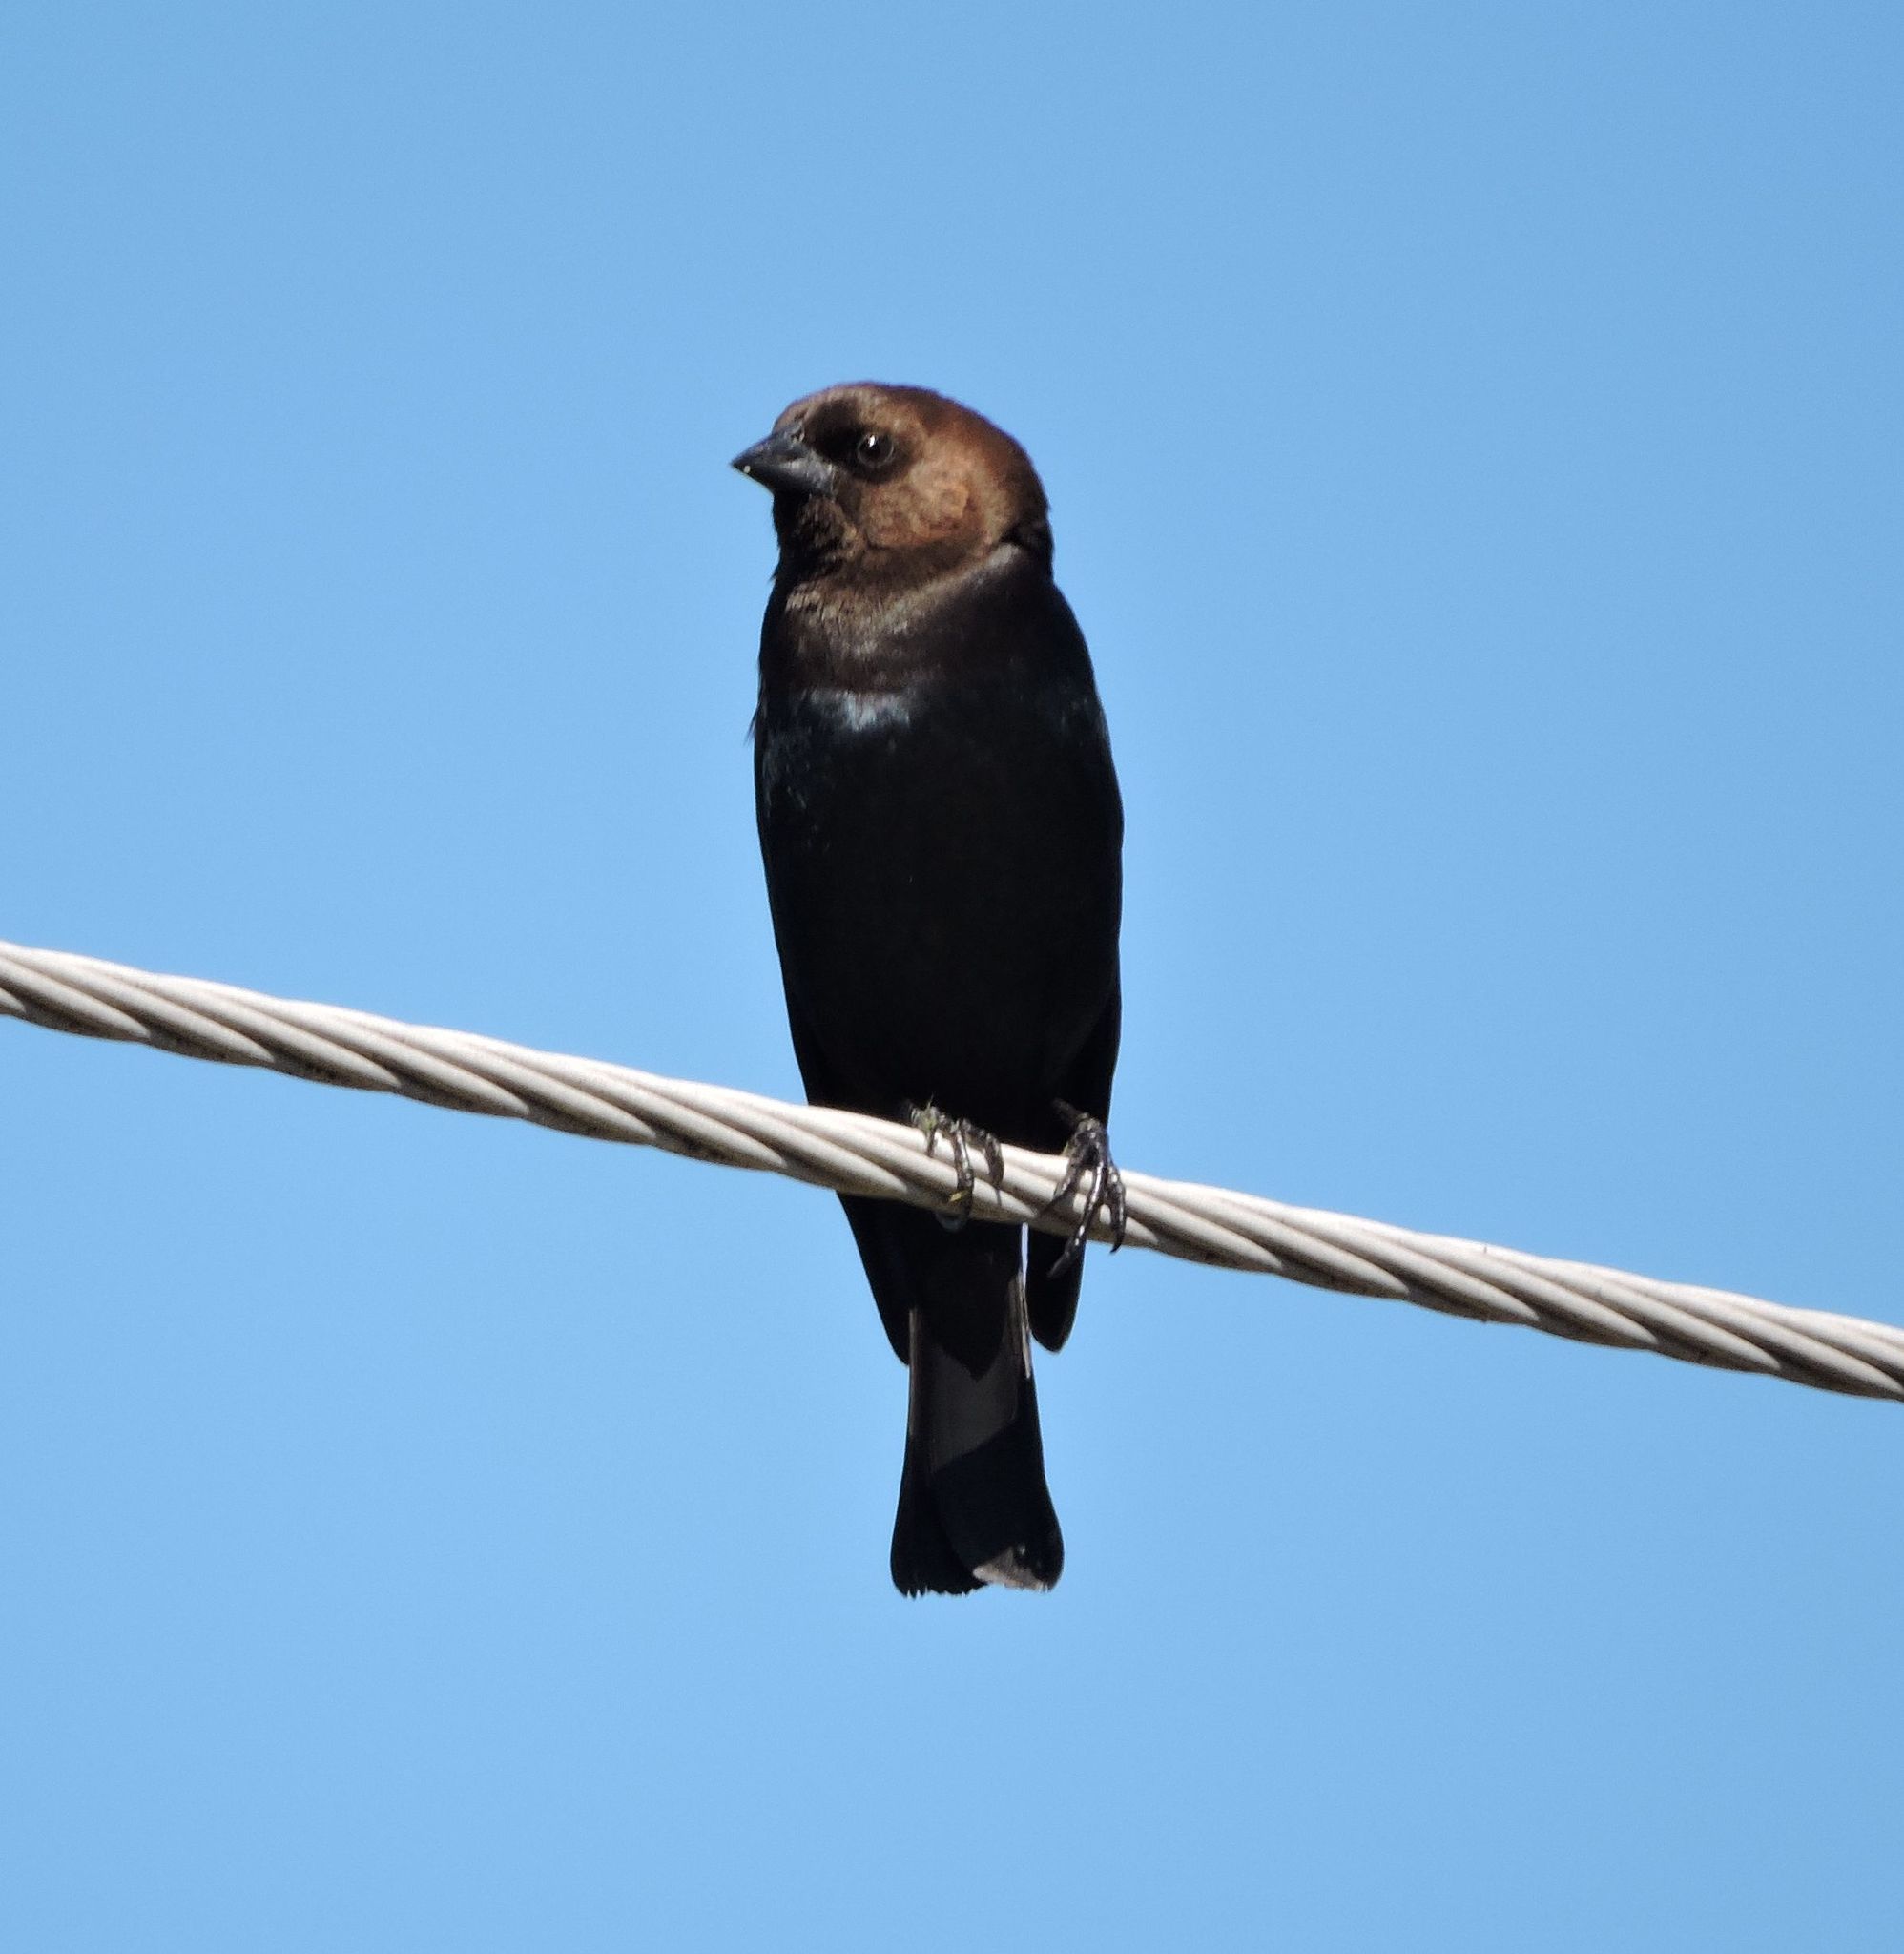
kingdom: Animalia
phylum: Chordata
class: Aves
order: Passeriformes
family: Icteridae
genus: Molothrus
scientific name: Molothrus ater
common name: Brown-headed cowbird
